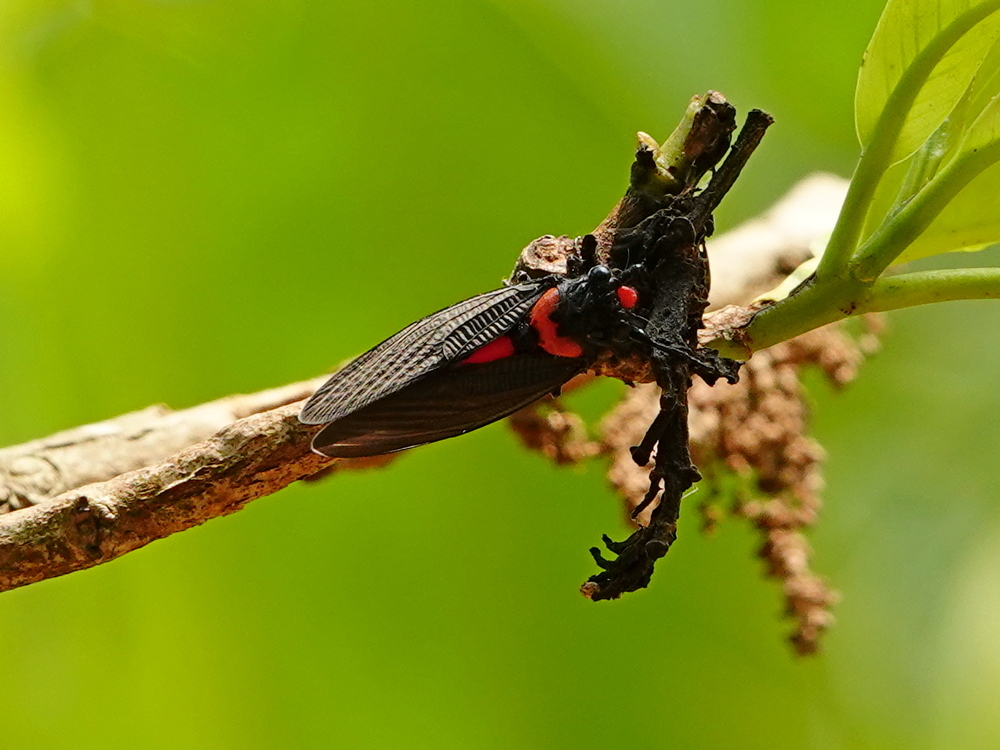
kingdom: Animalia
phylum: Arthropoda
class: Insecta
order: Hemiptera
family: Cicadidae
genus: Huechys
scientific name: Huechys sanguinea
